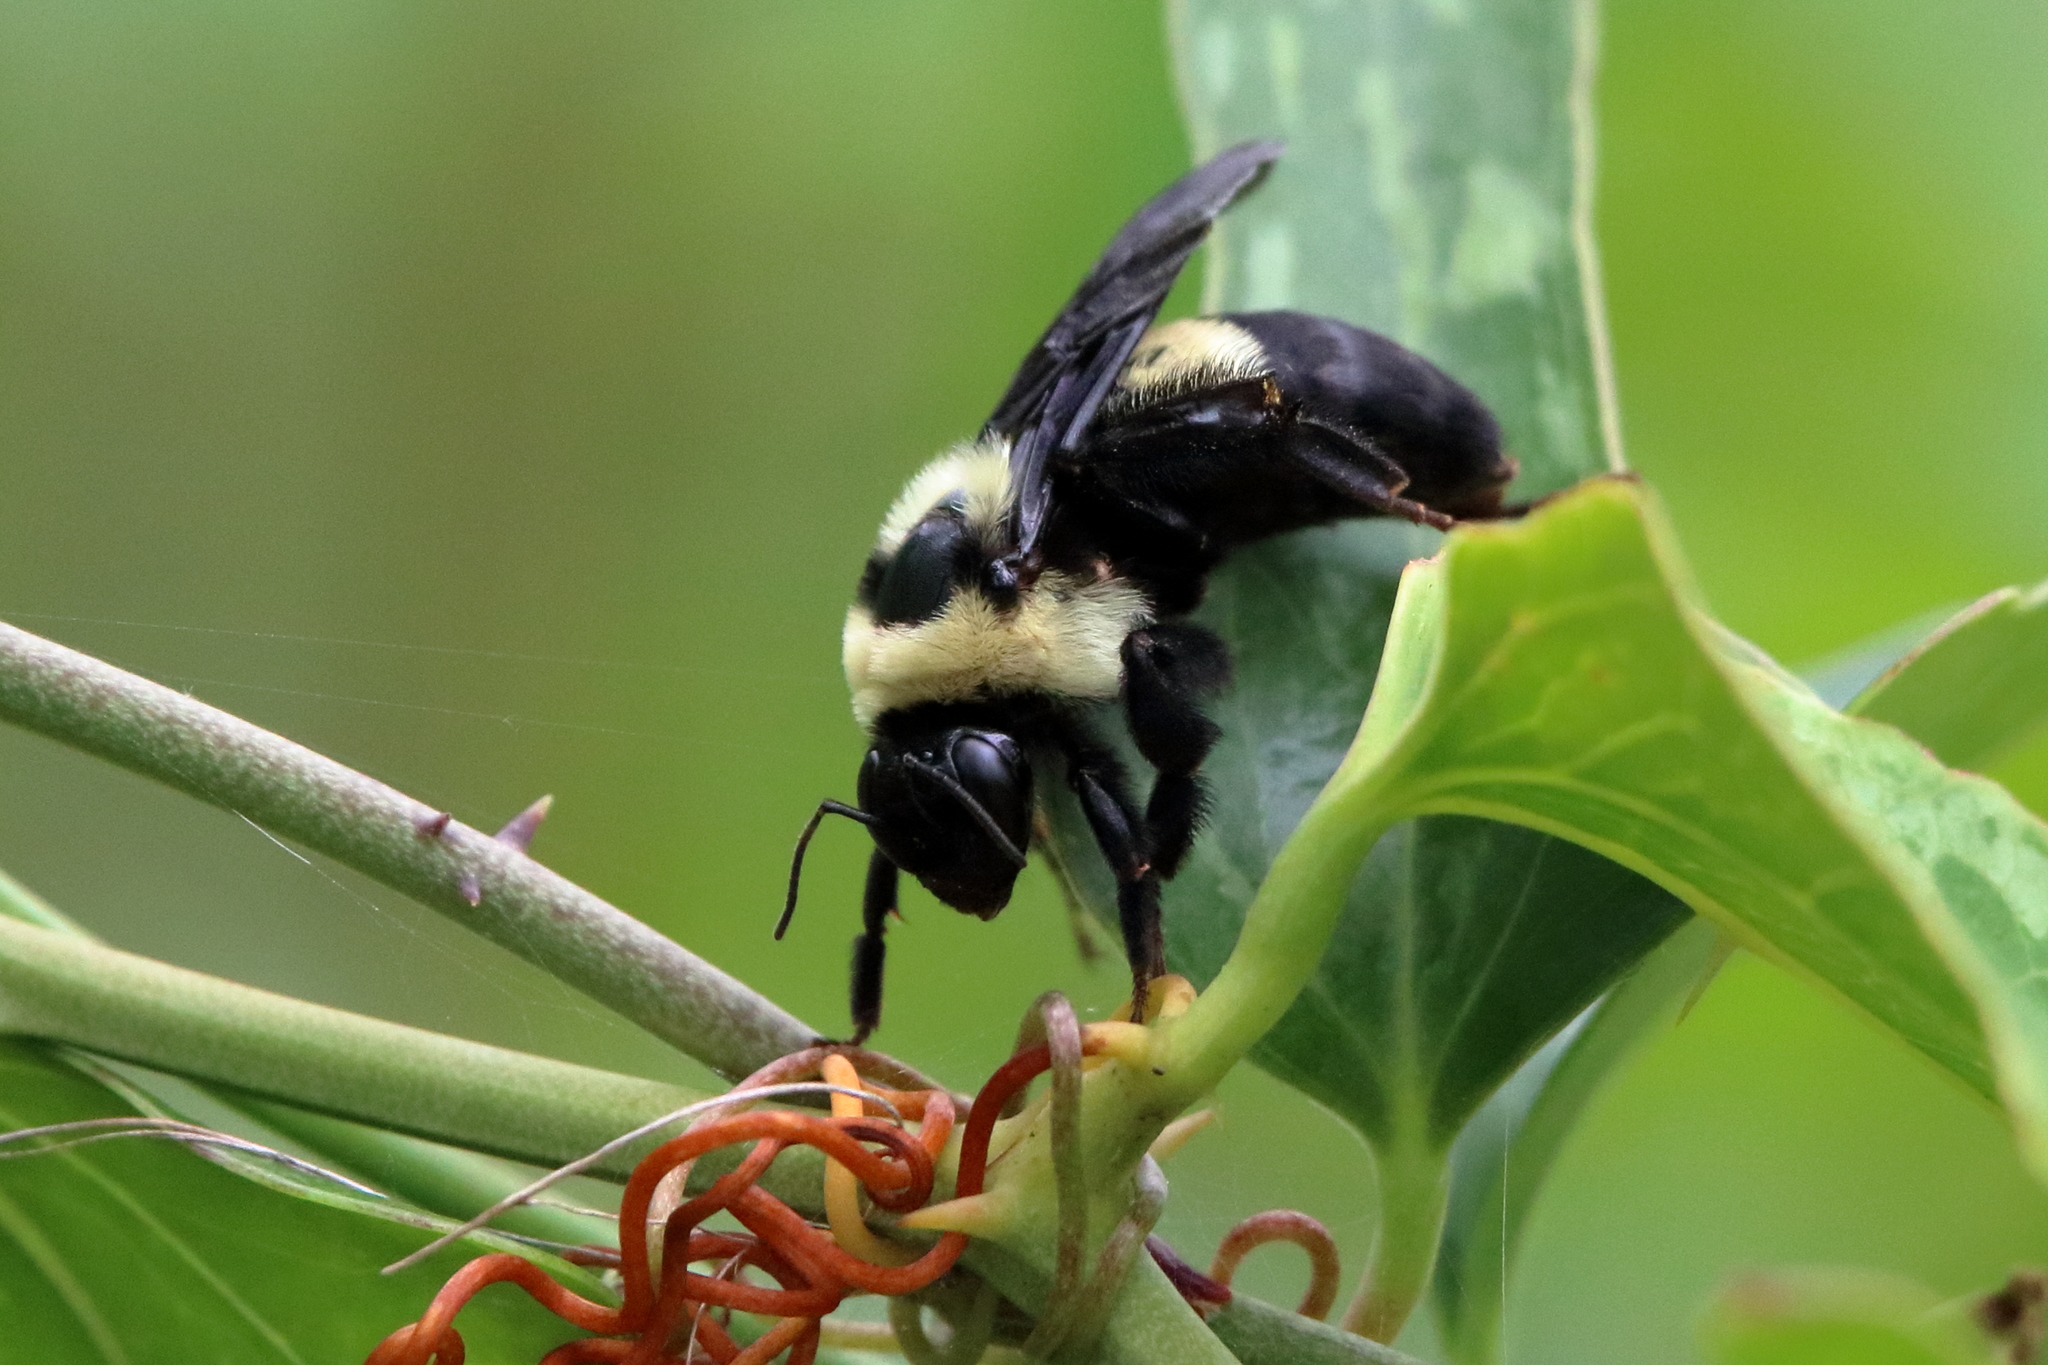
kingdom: Animalia
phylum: Arthropoda
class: Insecta
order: Hymenoptera
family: Apidae
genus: Bombus
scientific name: Bombus fraternus
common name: Southern plains bumble bee
